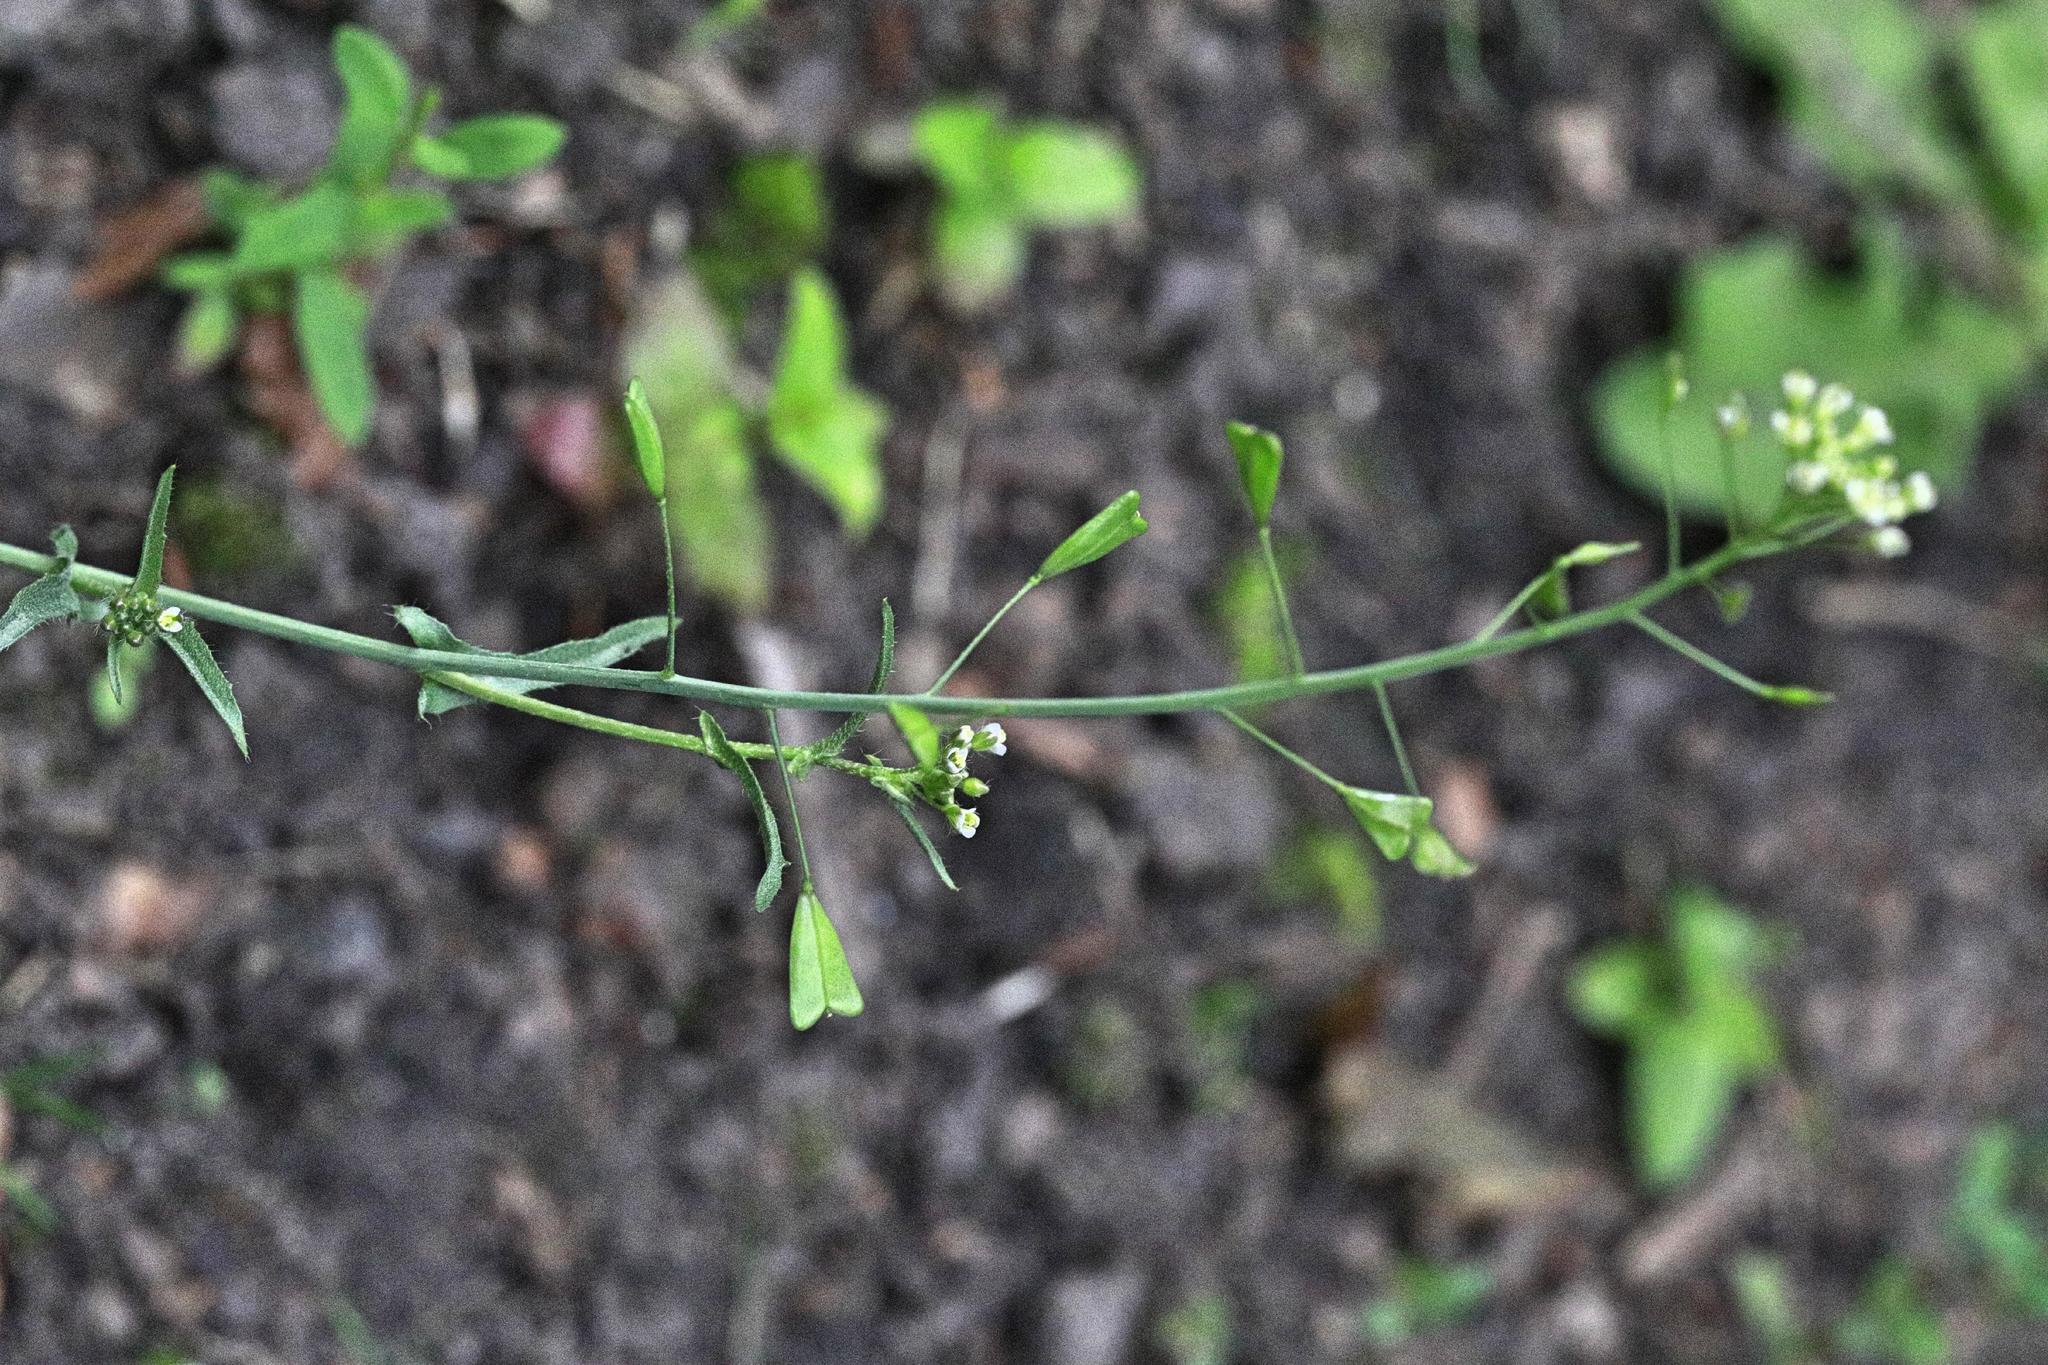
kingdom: Plantae
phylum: Tracheophyta
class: Magnoliopsida
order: Brassicales
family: Brassicaceae
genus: Capsella
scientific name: Capsella bursa-pastoris
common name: Shepherd's purse
